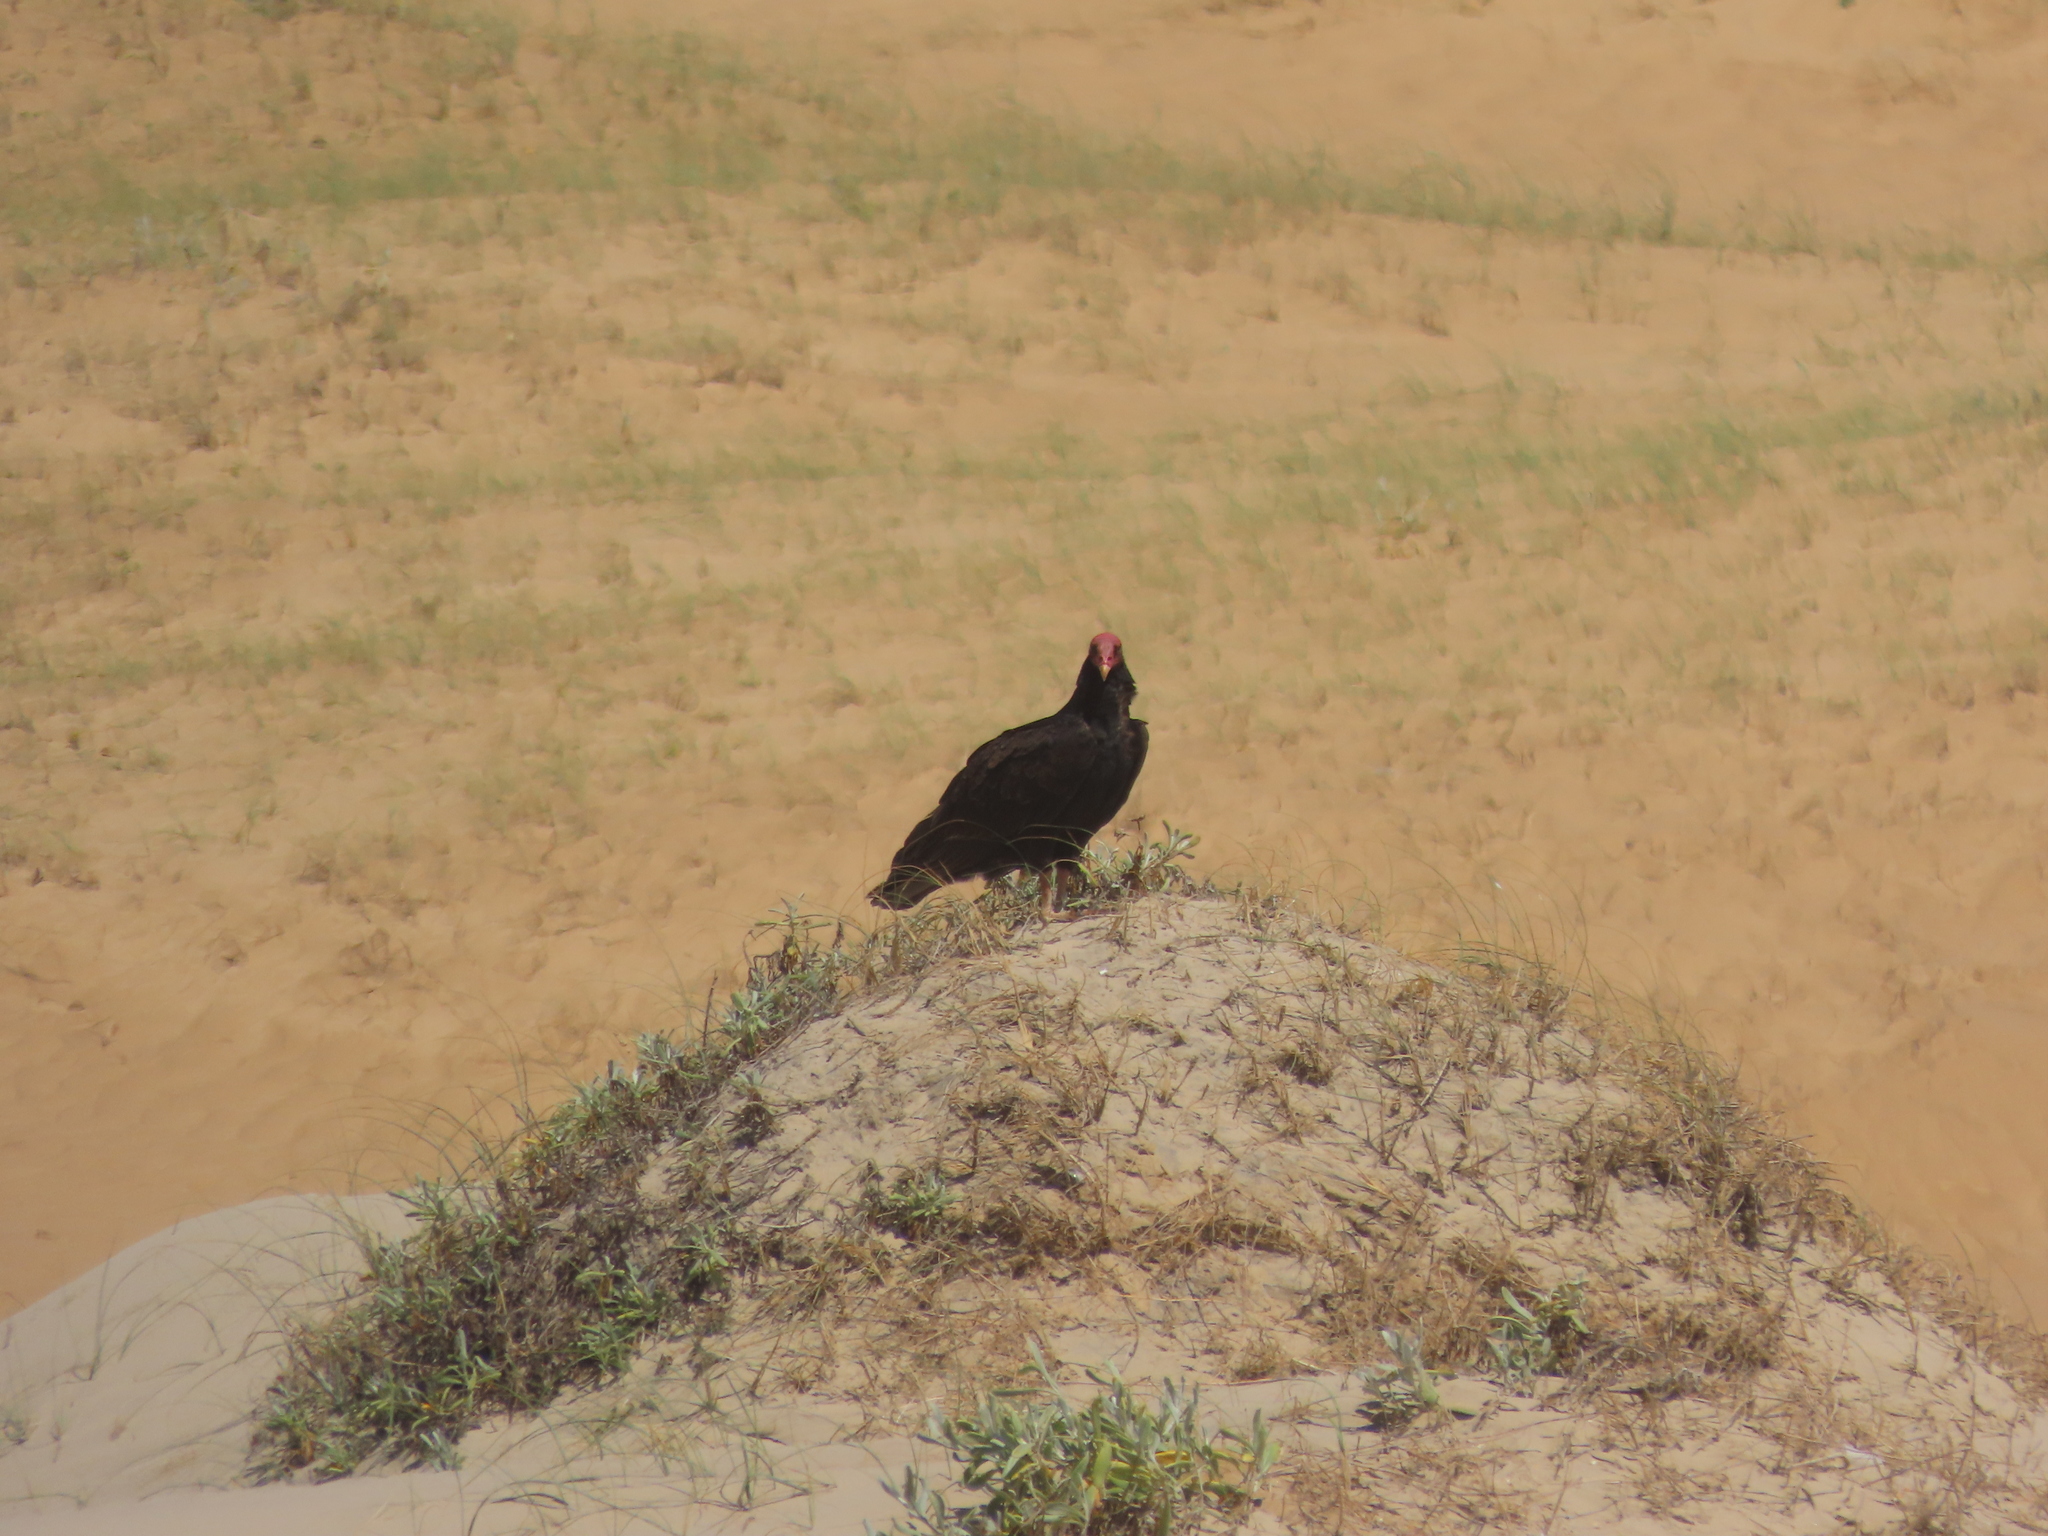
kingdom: Animalia
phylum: Chordata
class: Aves
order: Accipitriformes
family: Cathartidae
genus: Cathartes
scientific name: Cathartes aura
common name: Turkey vulture
